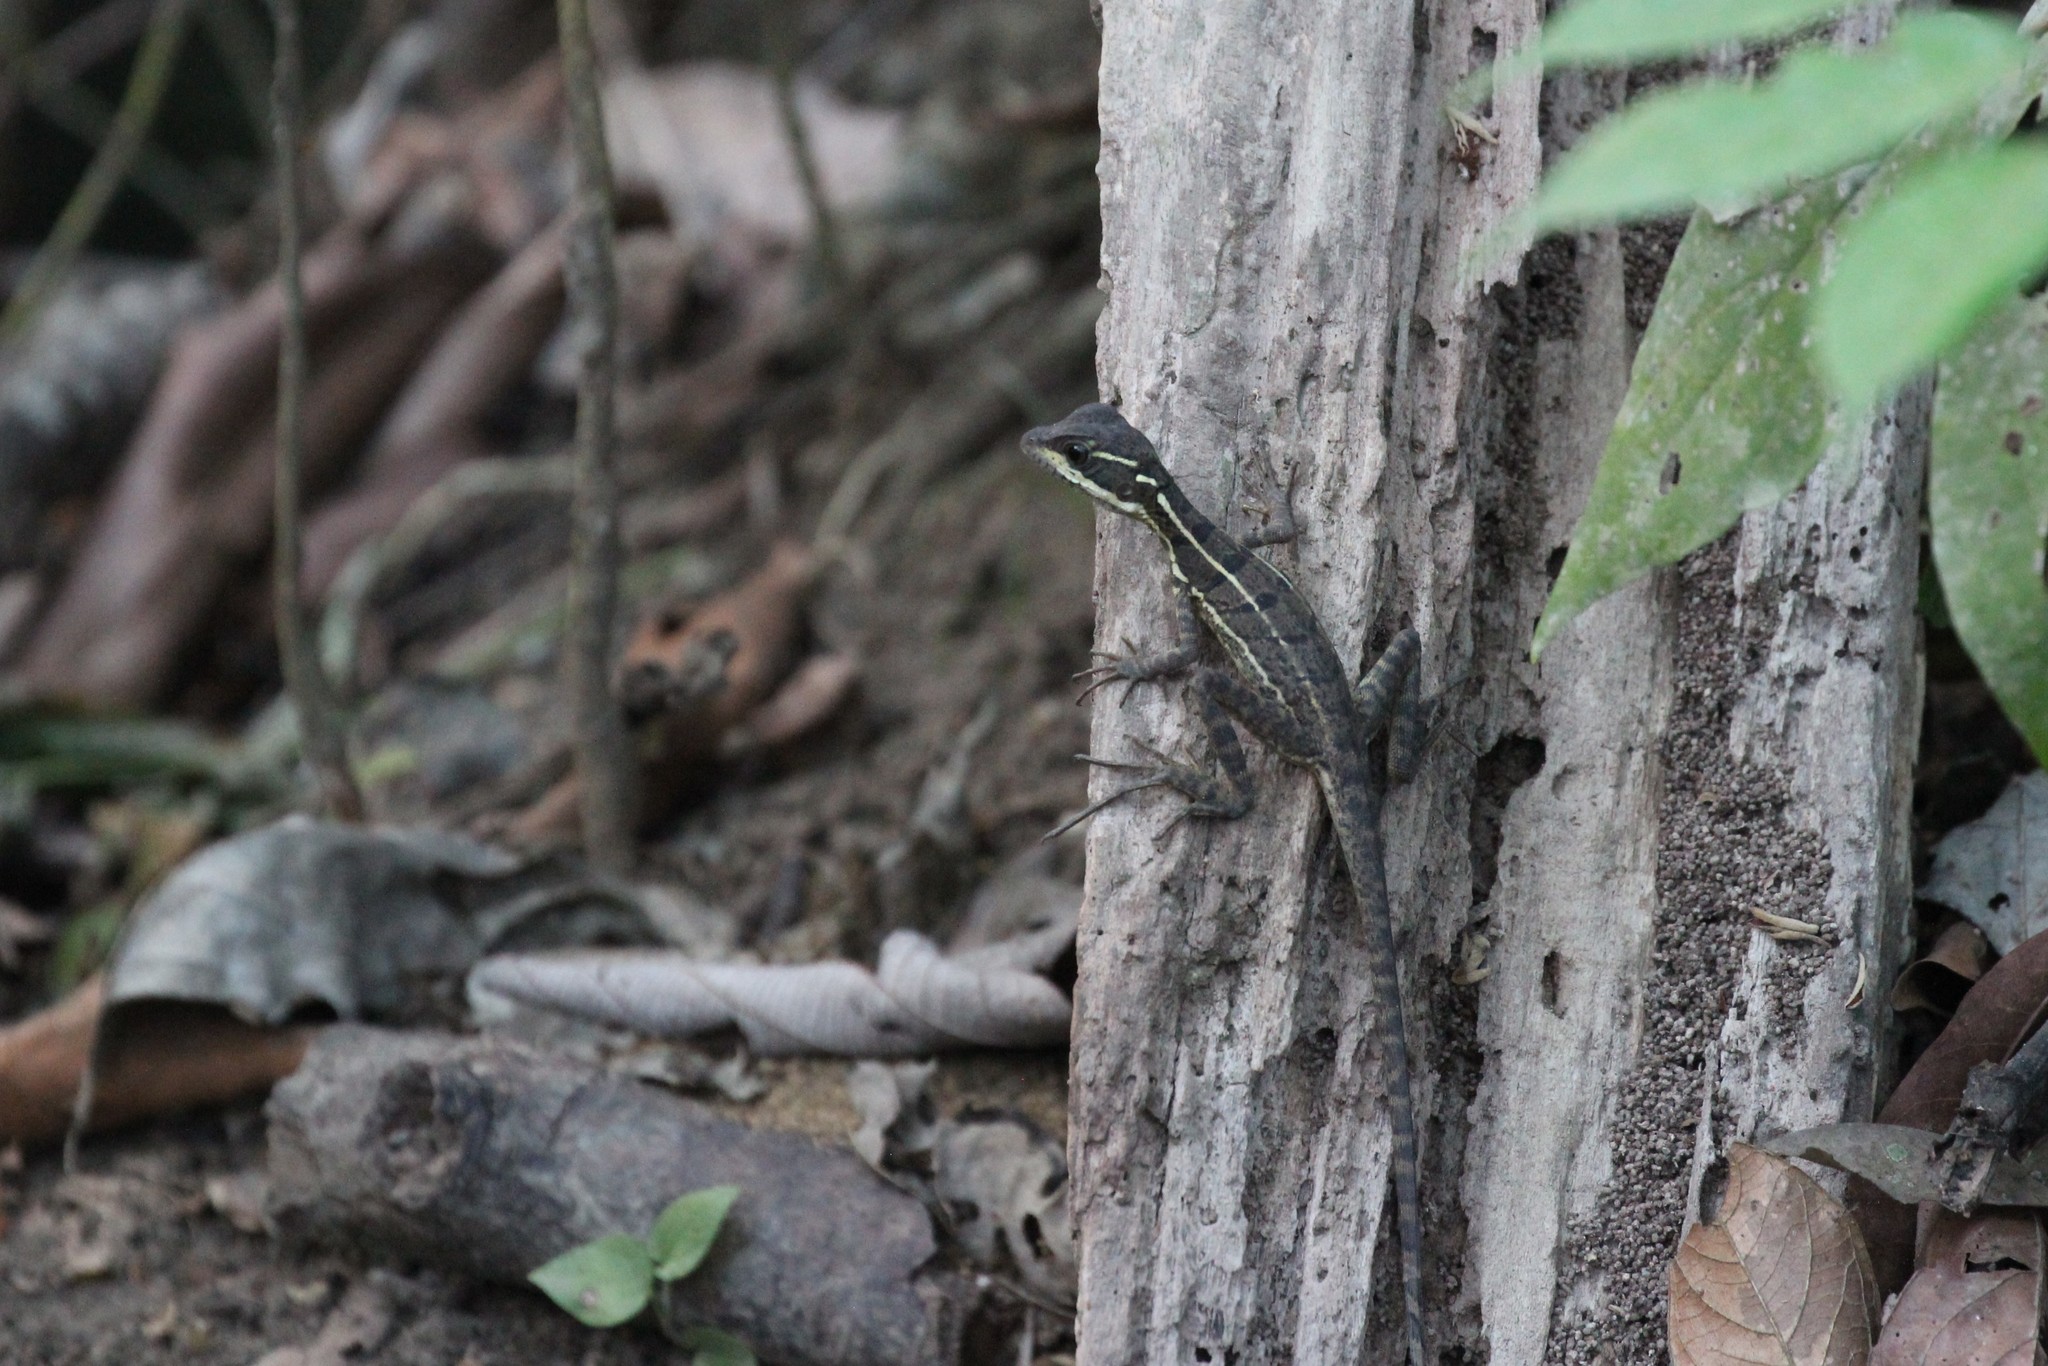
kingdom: Animalia
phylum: Chordata
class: Squamata
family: Corytophanidae
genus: Basiliscus
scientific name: Basiliscus basiliscus
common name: Common basilisk
